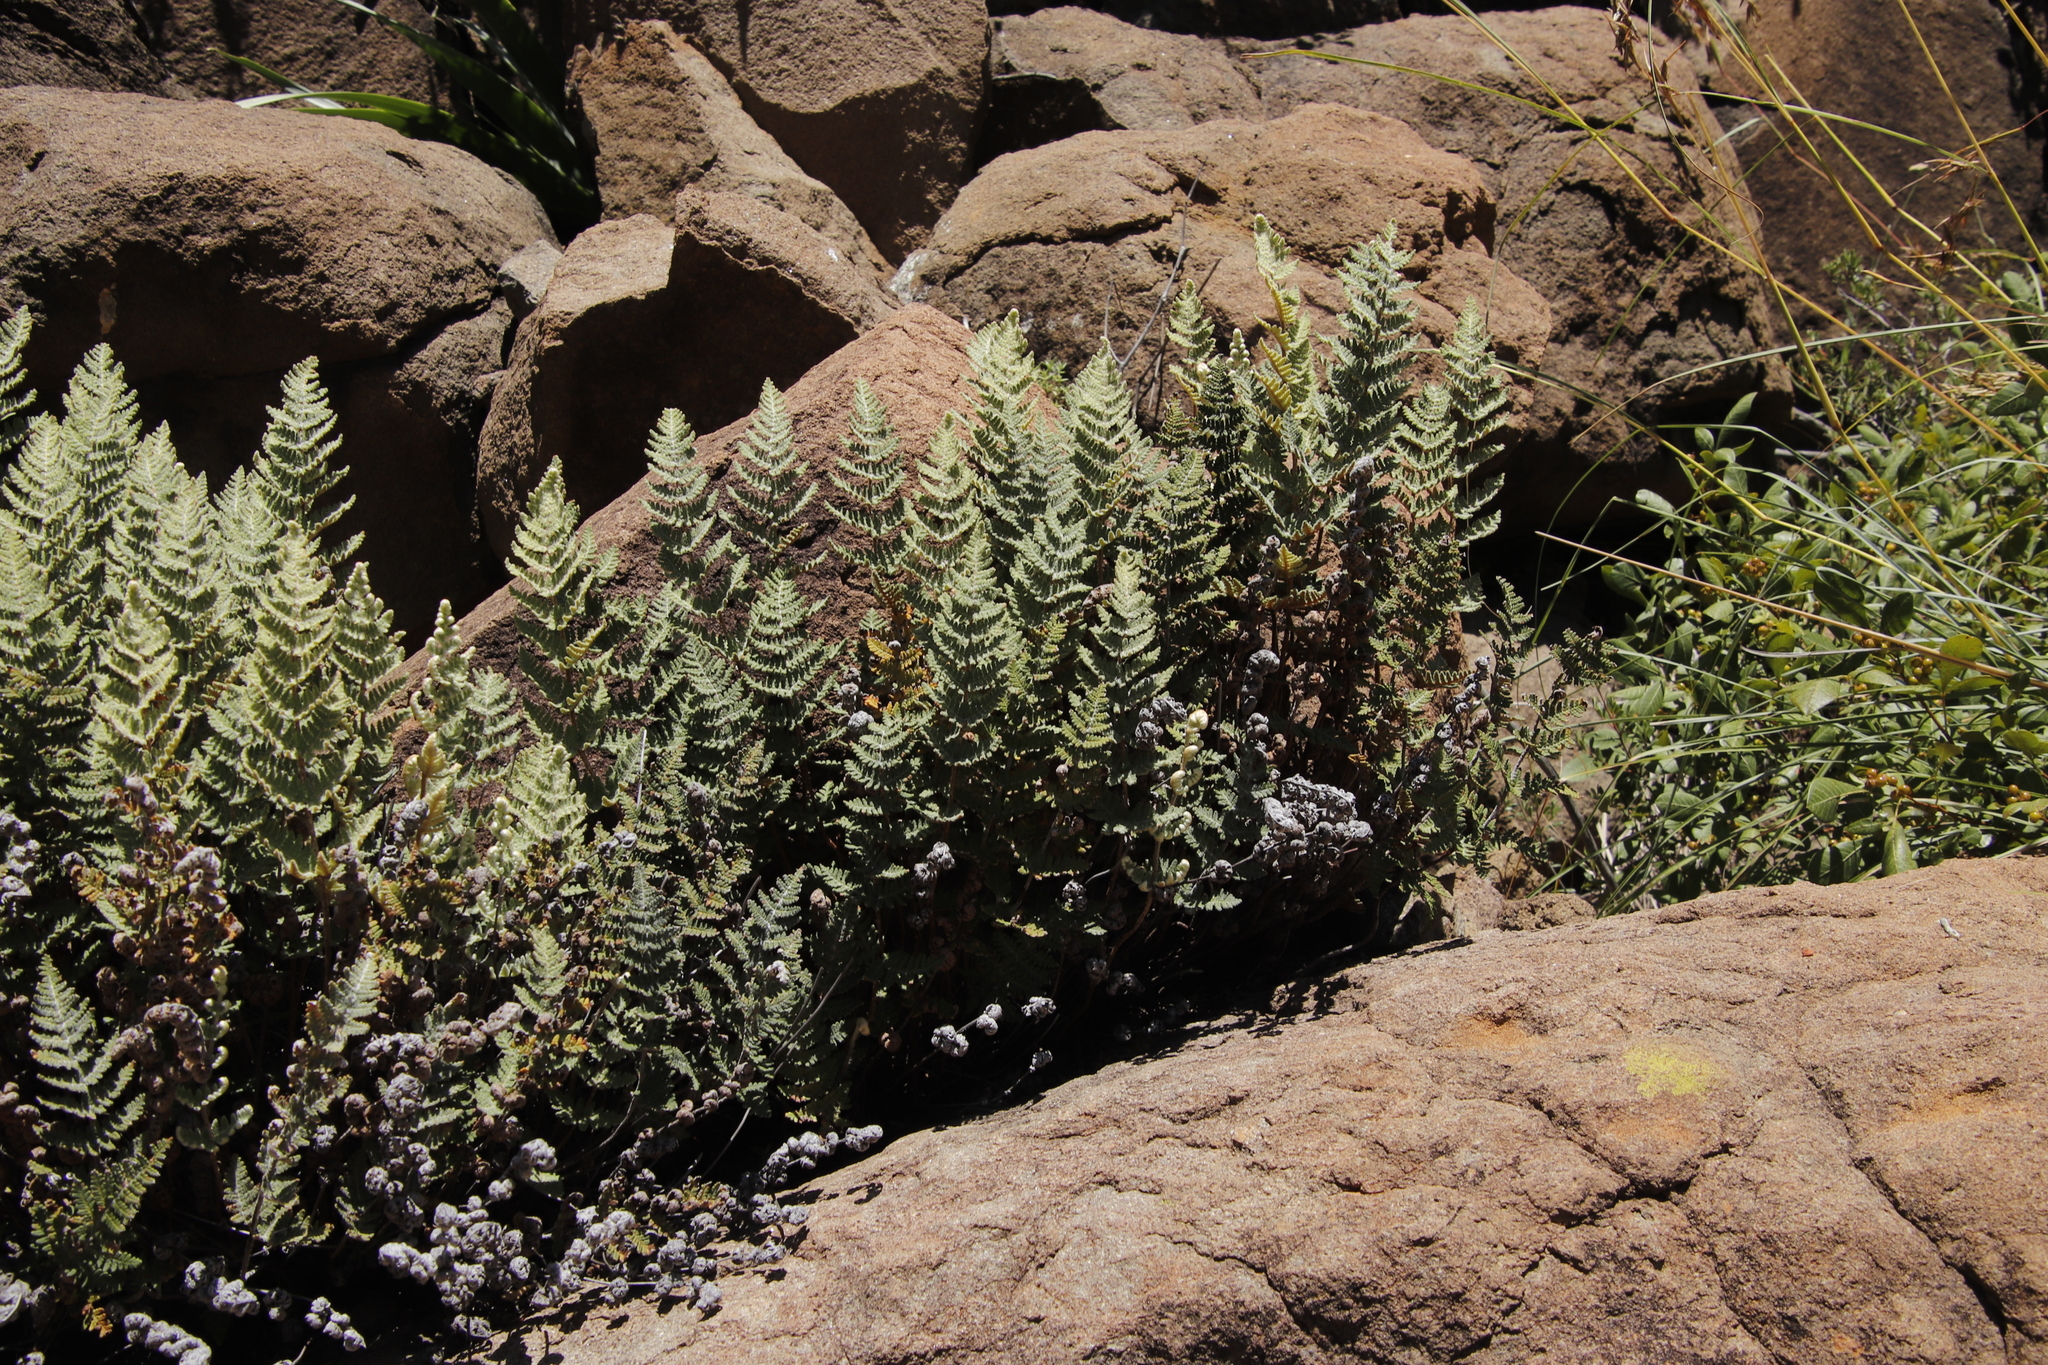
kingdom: Plantae
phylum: Tracheophyta
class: Polypodiopsida
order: Polypodiales
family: Pteridaceae
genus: Cheilanthes
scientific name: Cheilanthes eckloniana
